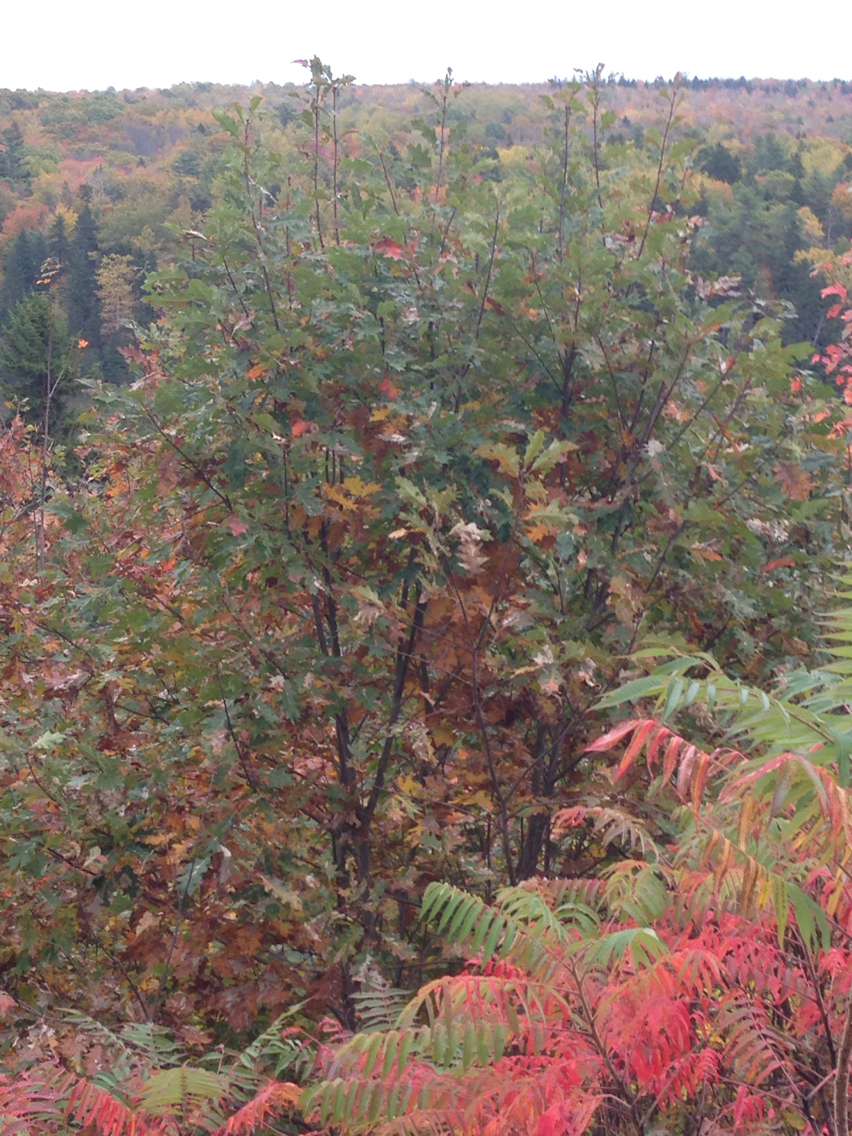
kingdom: Plantae
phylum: Tracheophyta
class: Magnoliopsida
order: Fagales
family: Fagaceae
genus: Quercus
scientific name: Quercus rubra
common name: Red oak
